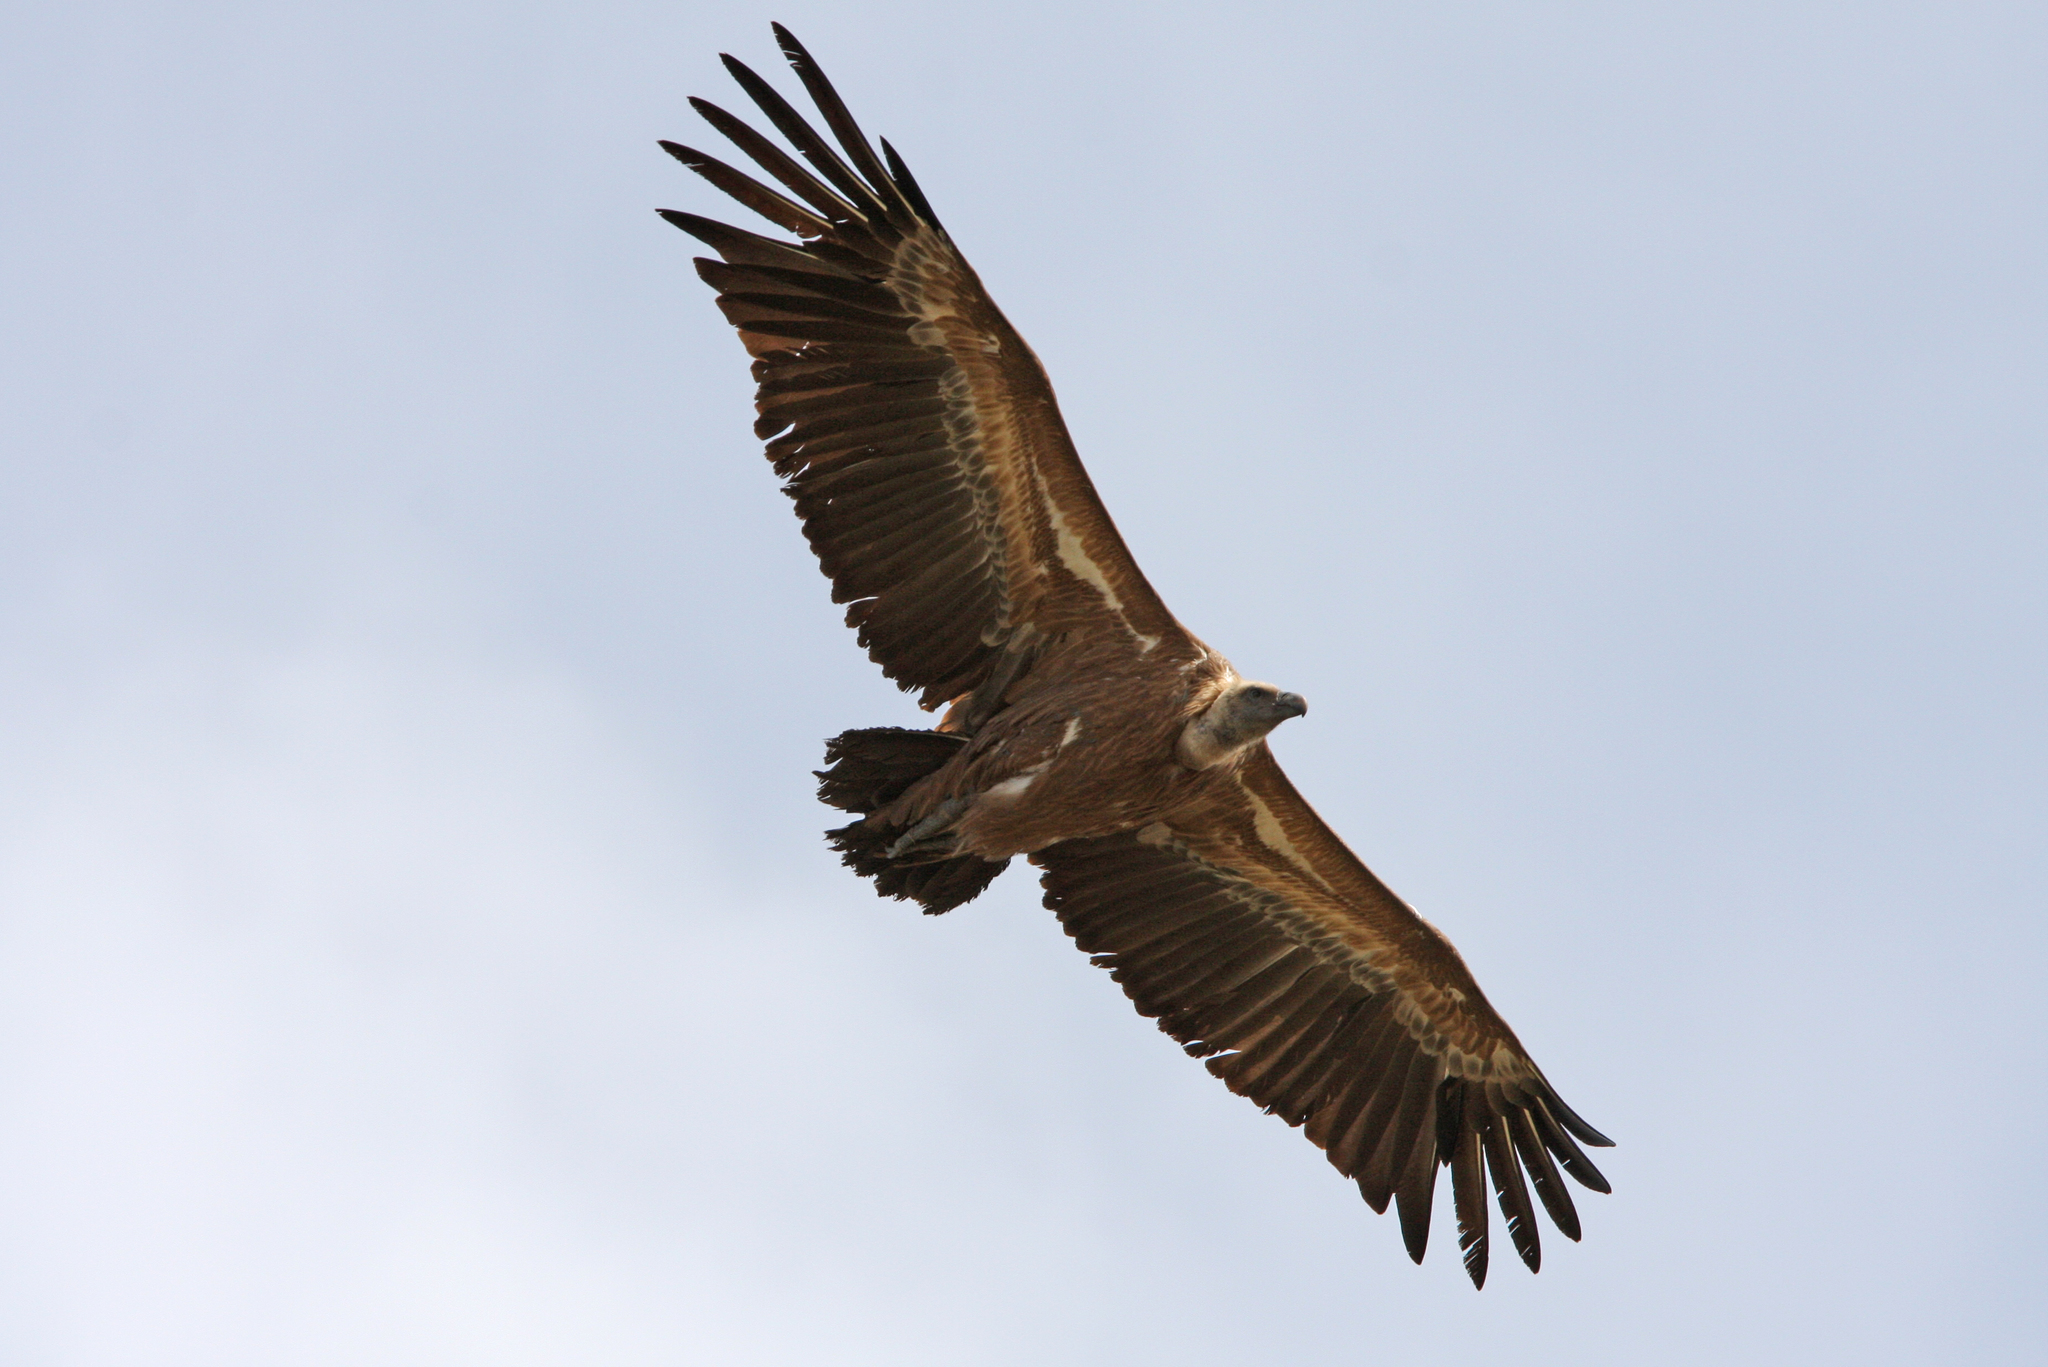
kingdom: Animalia
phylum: Chordata
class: Aves
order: Accipitriformes
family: Accipitridae
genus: Gyps
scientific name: Gyps fulvus
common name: Griffon vulture
